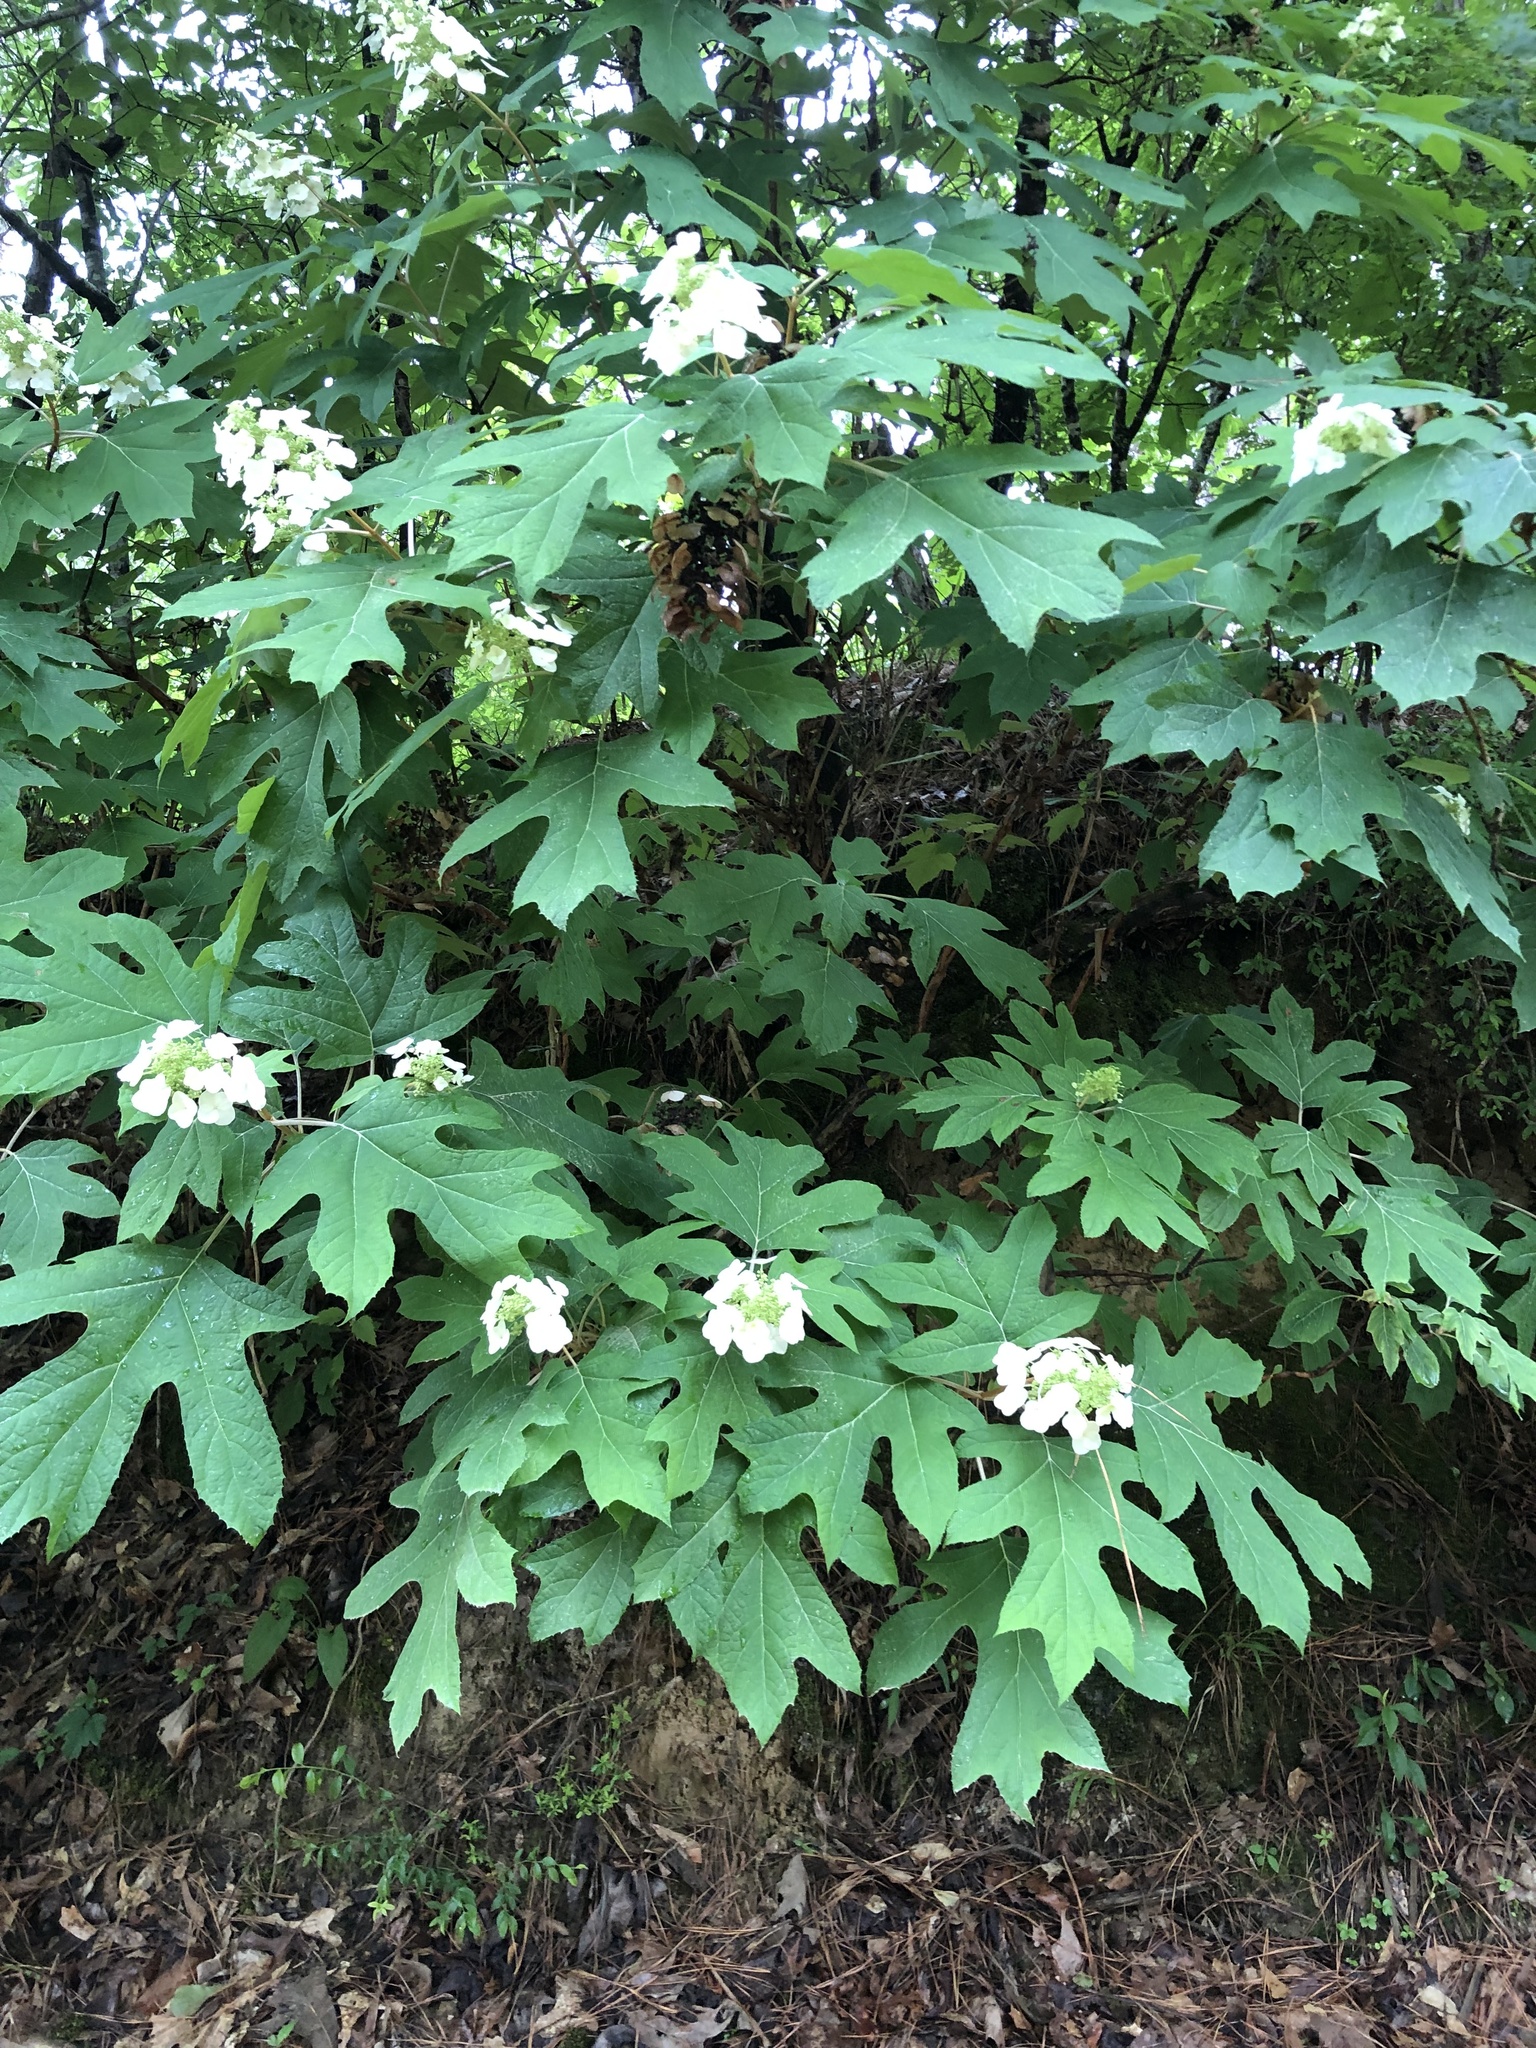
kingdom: Plantae
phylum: Tracheophyta
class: Magnoliopsida
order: Cornales
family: Hydrangeaceae
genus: Hydrangea
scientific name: Hydrangea quercifolia
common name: Oak-leaf hydrangea
